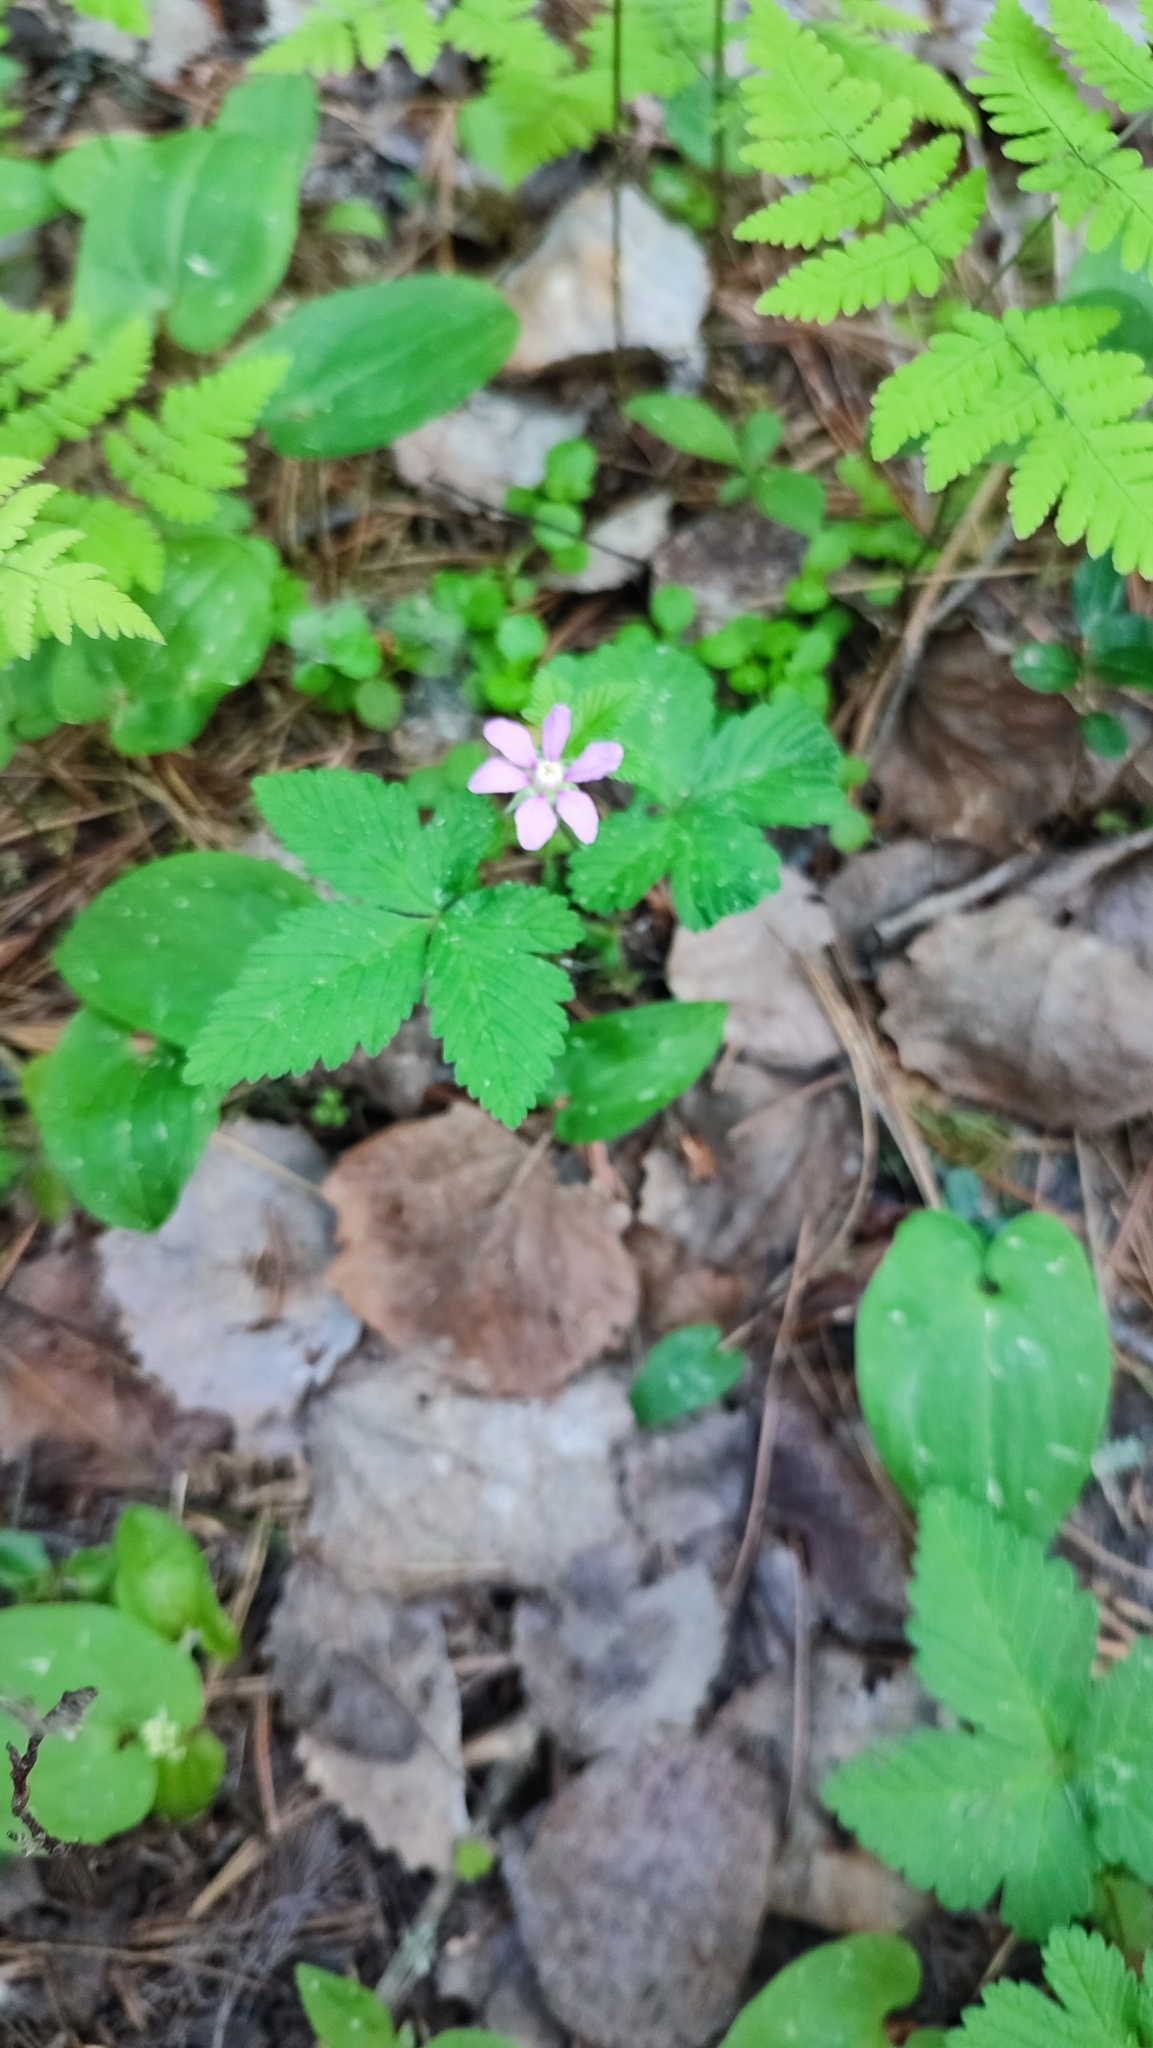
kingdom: Plantae
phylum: Tracheophyta
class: Magnoliopsida
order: Rosales
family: Rosaceae
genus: Rubus
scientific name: Rubus arcticus
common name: Arctic bramble
